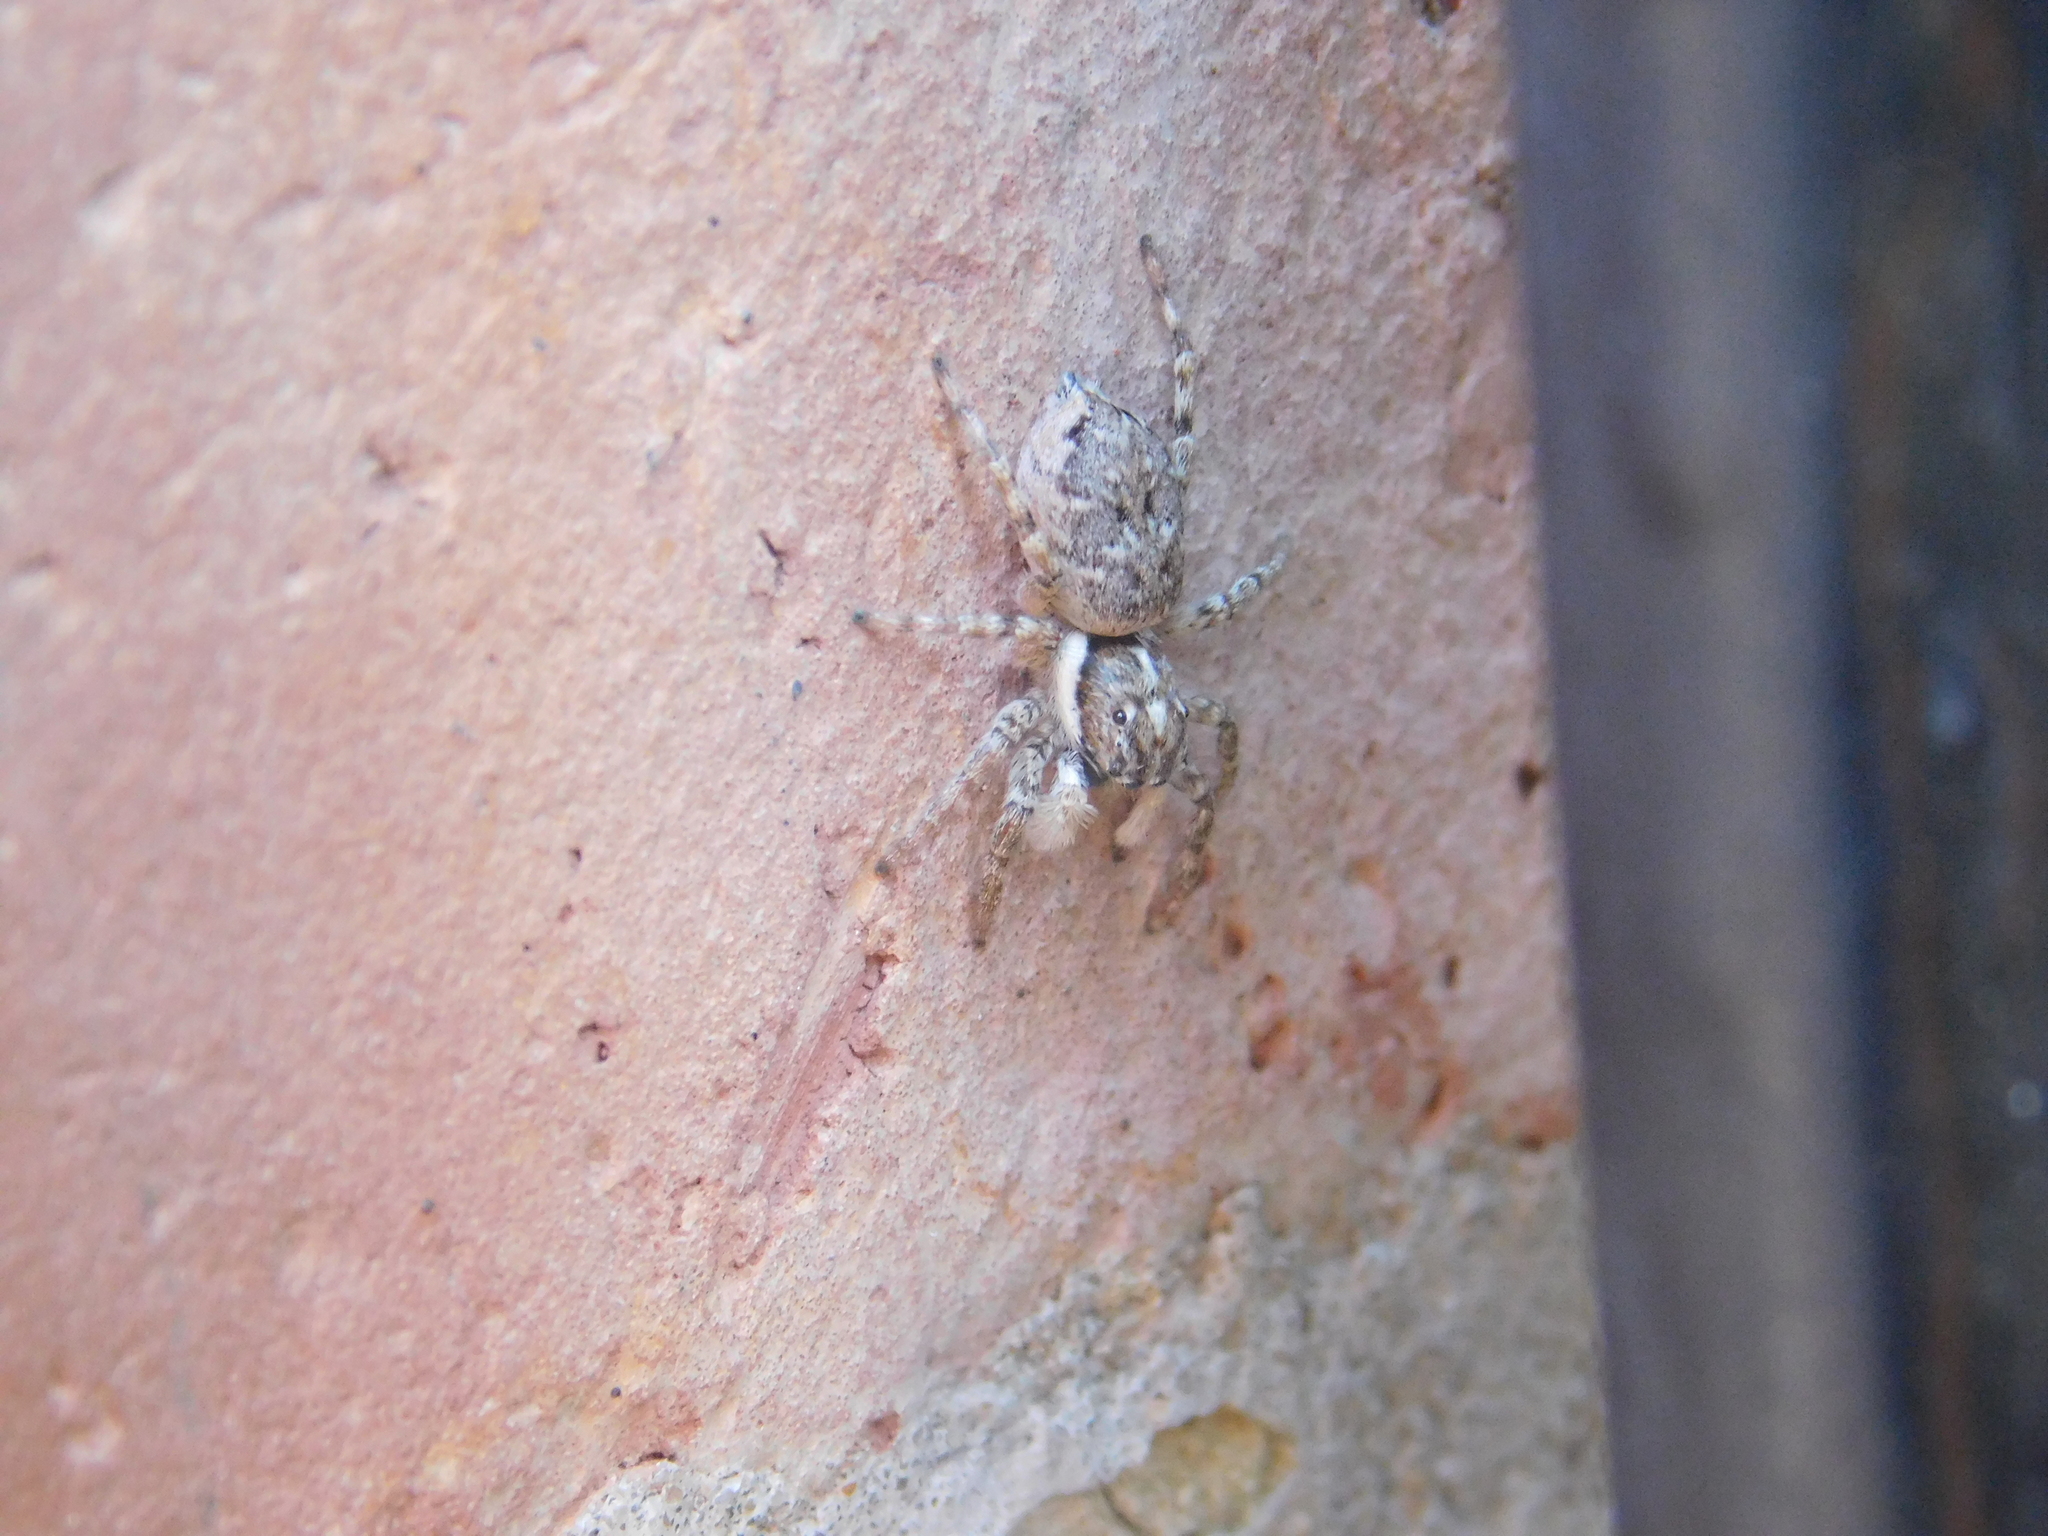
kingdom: Animalia
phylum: Arthropoda
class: Arachnida
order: Araneae
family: Salticidae
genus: Menemerus
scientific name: Menemerus semilimbatus
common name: Jumping spider
